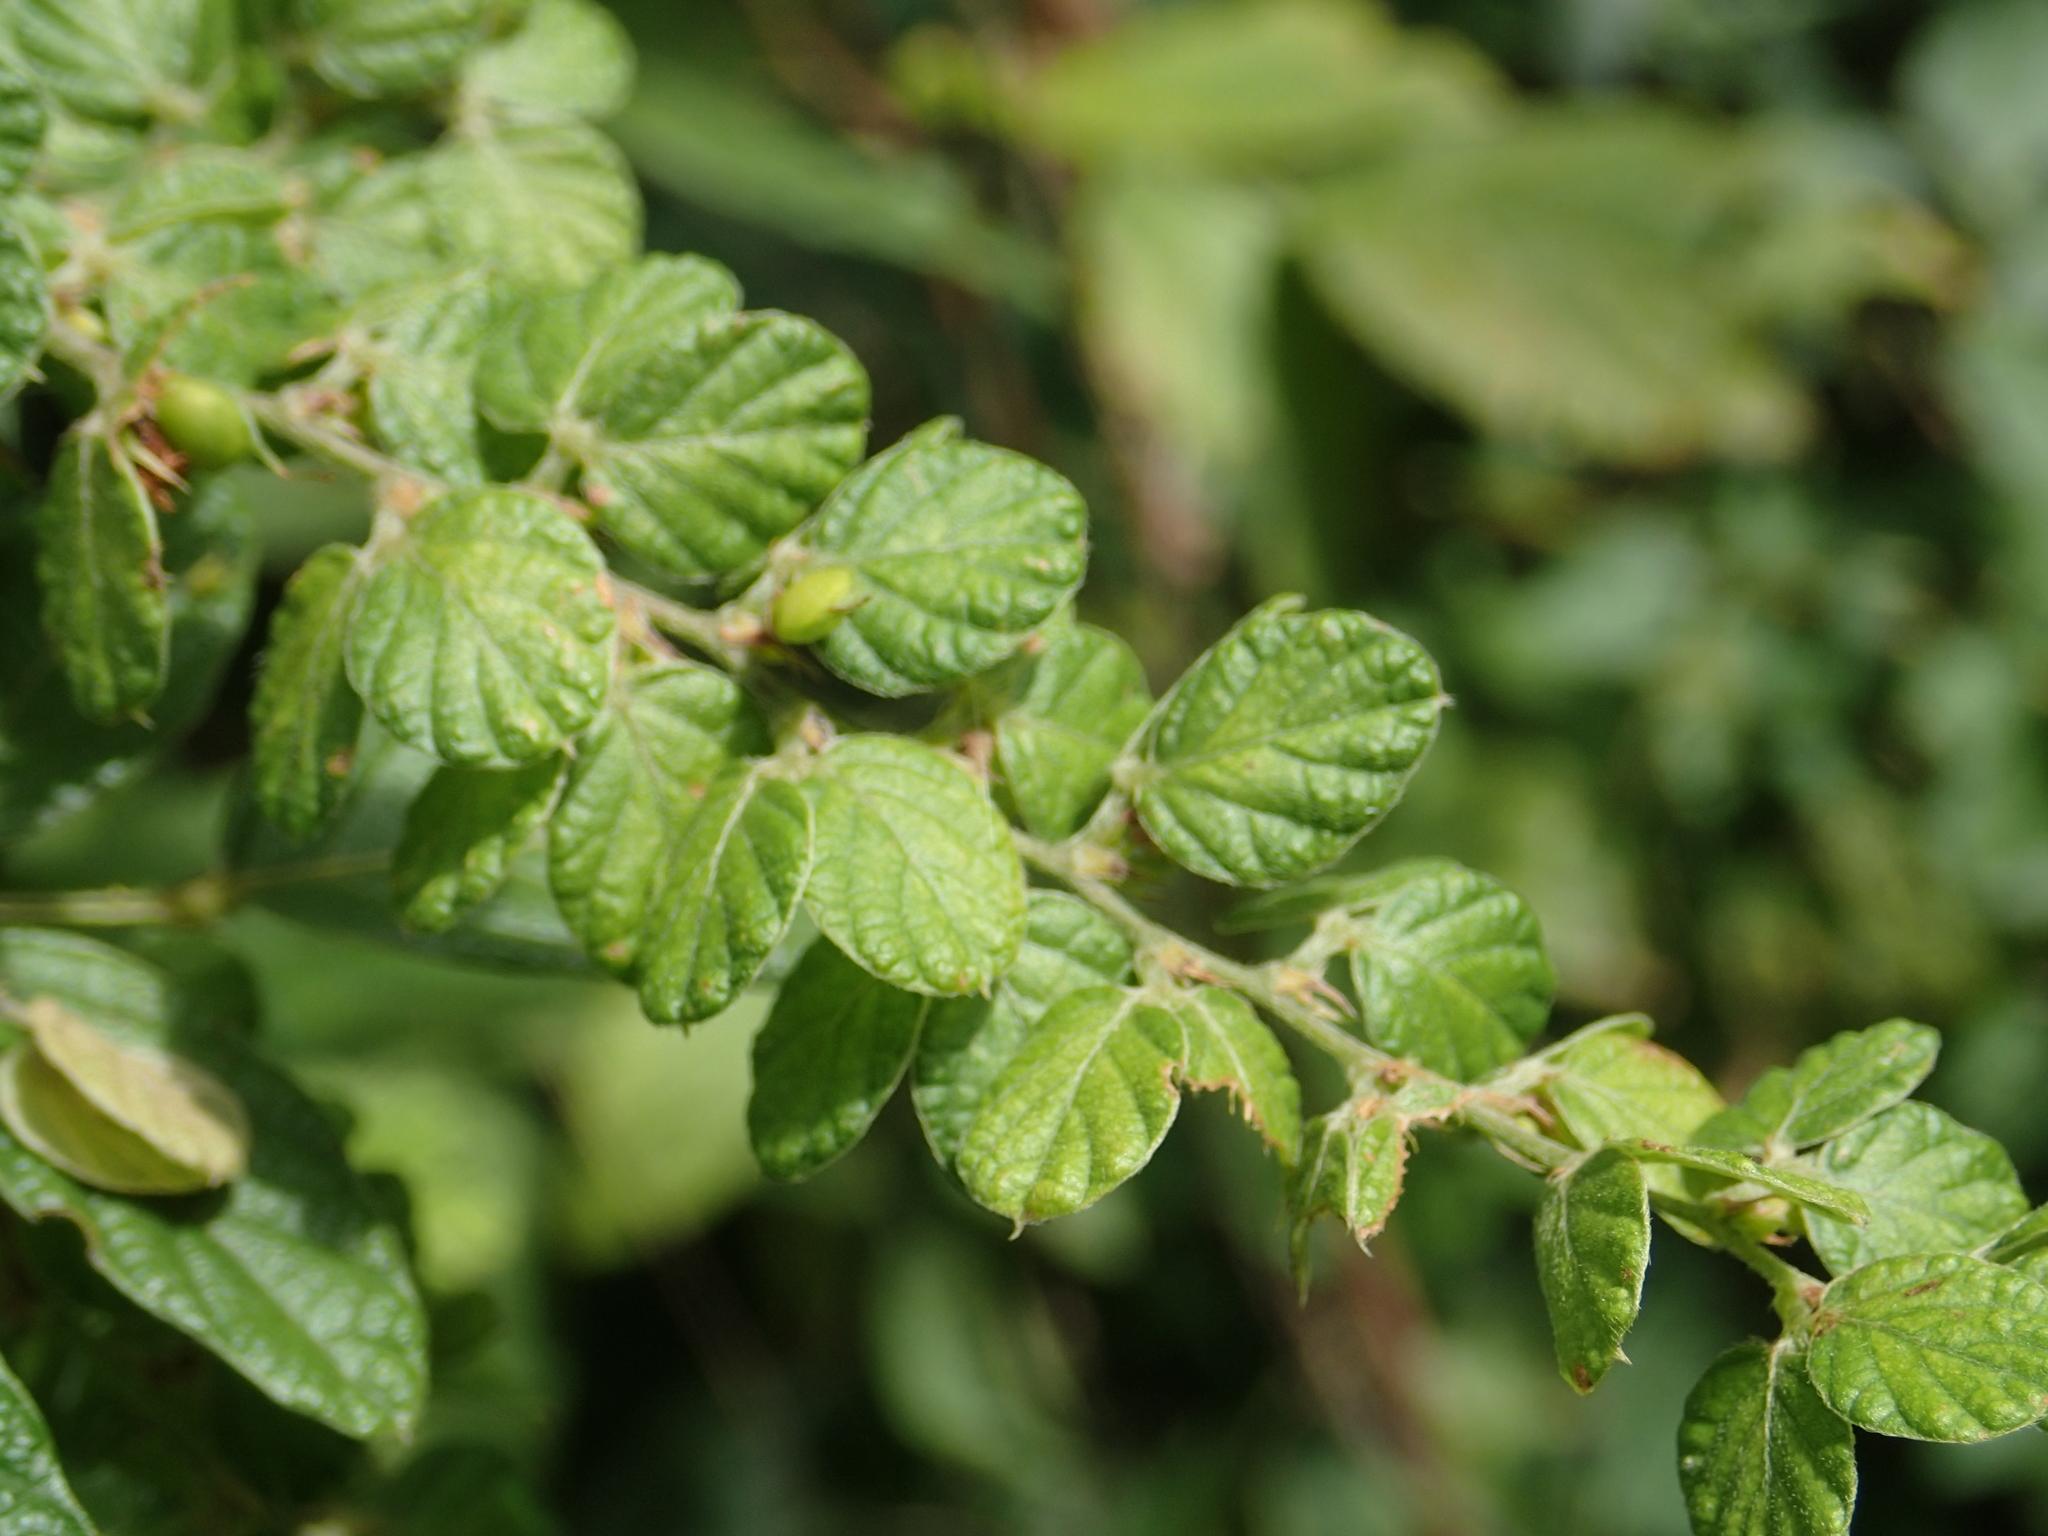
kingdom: Plantae
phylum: Tracheophyta
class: Magnoliopsida
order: Fabales
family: Fabaceae
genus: Phyllodium
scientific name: Phyllodium pulchellum
